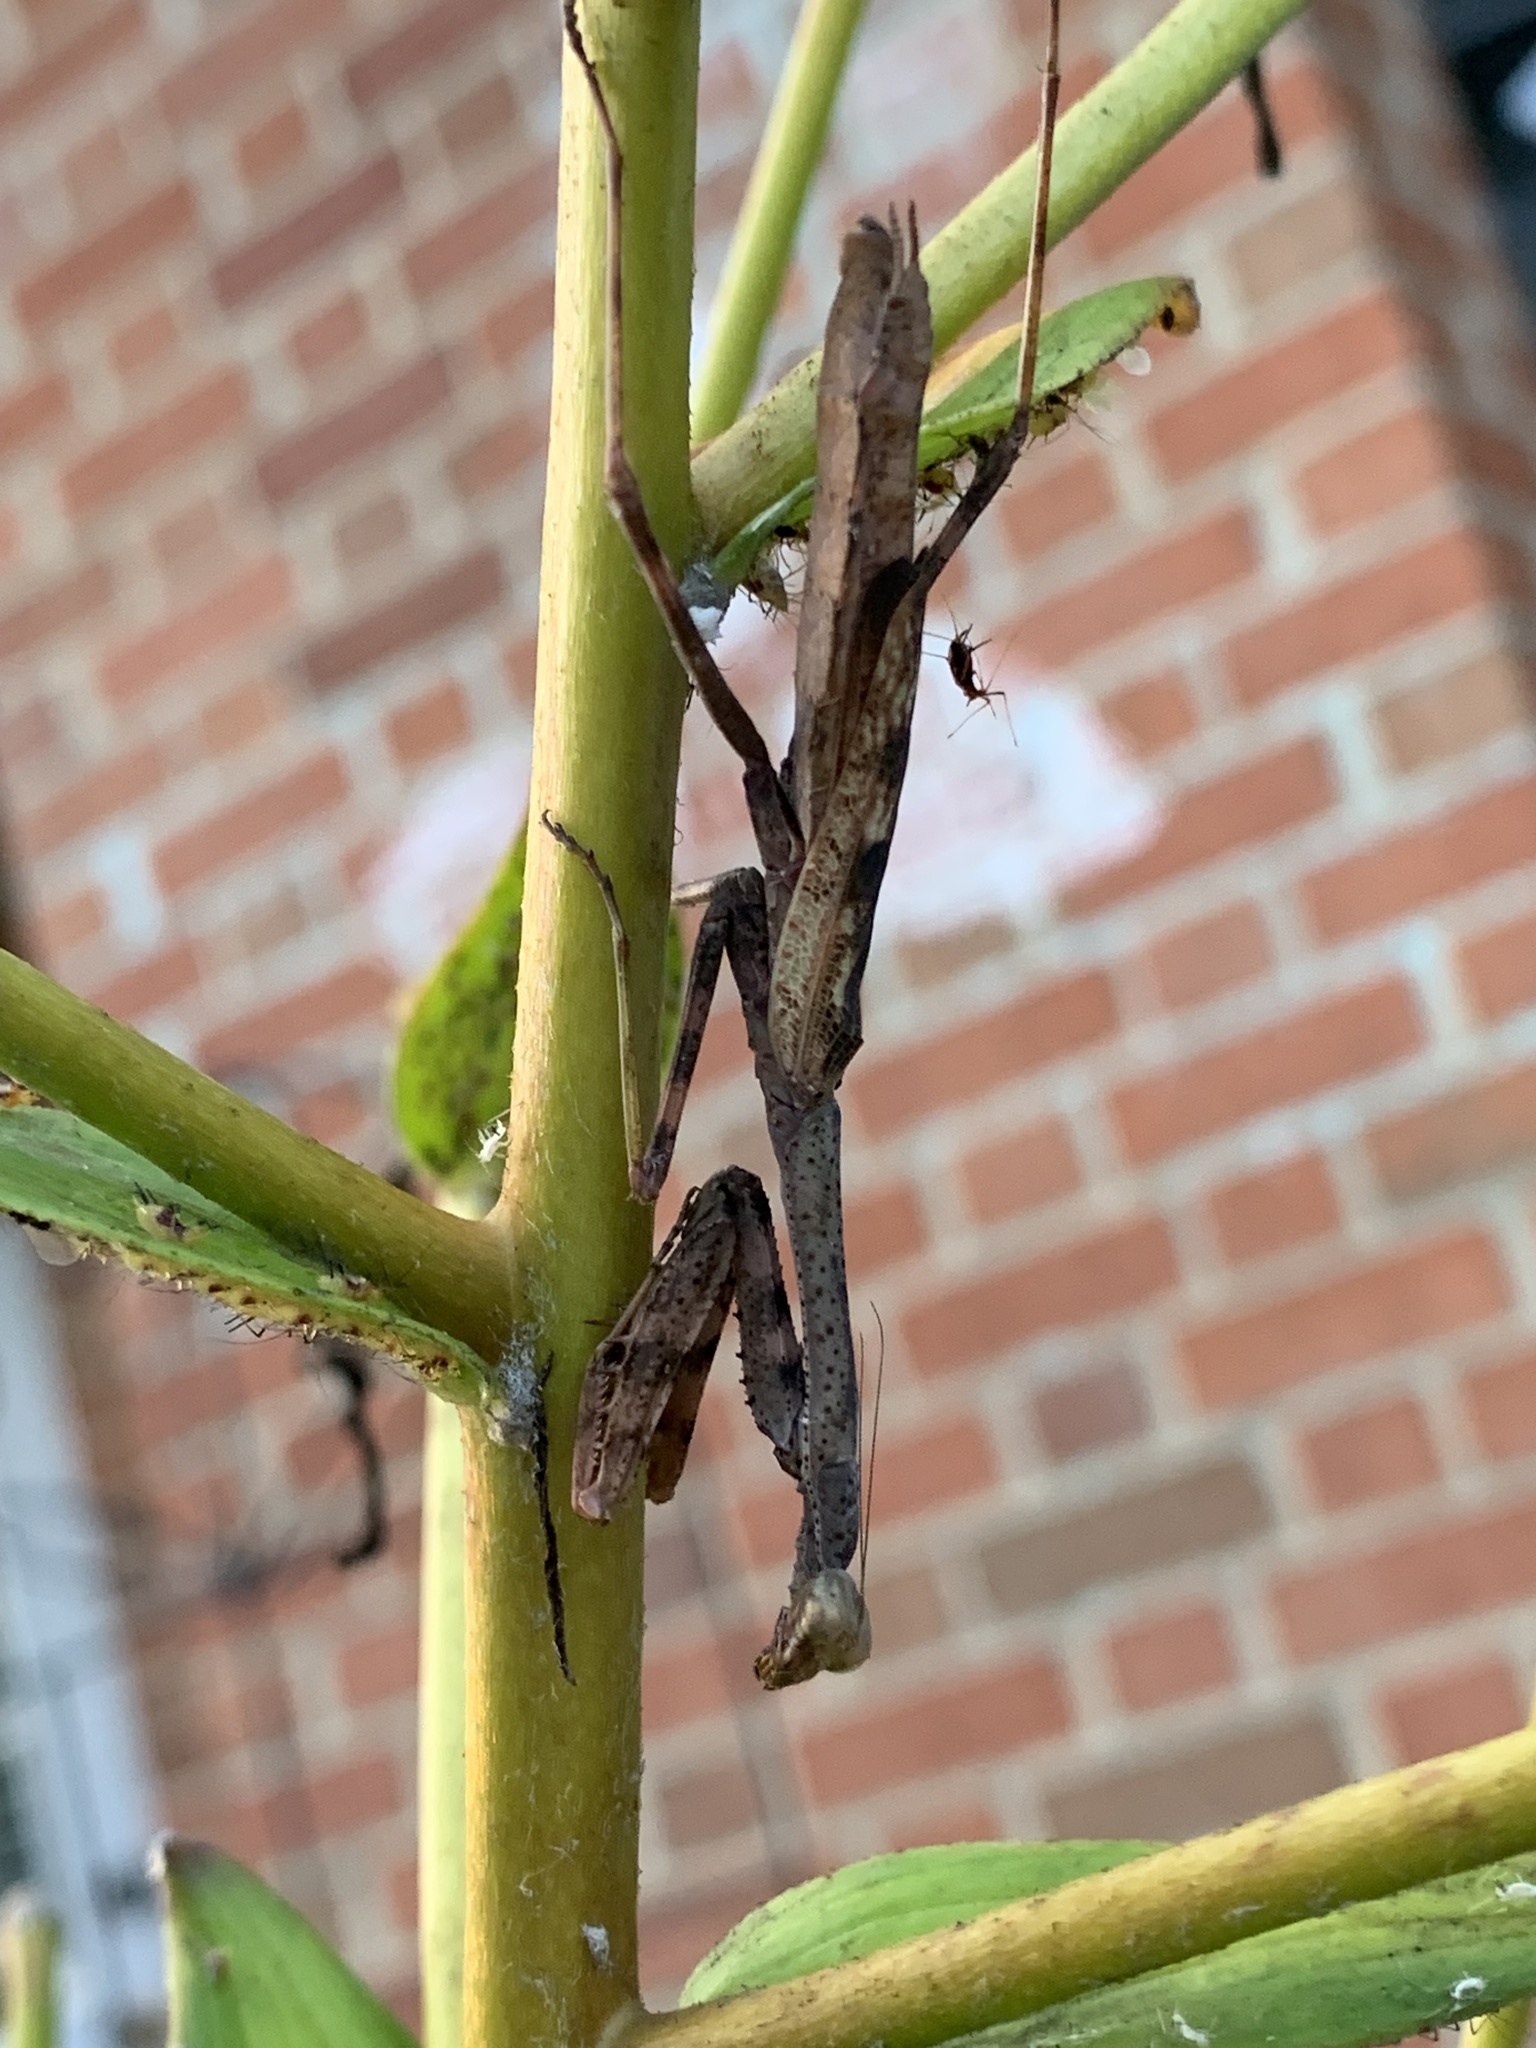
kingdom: Animalia
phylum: Arthropoda
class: Insecta
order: Mantodea
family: Mantidae
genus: Stagmomantis
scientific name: Stagmomantis carolina
